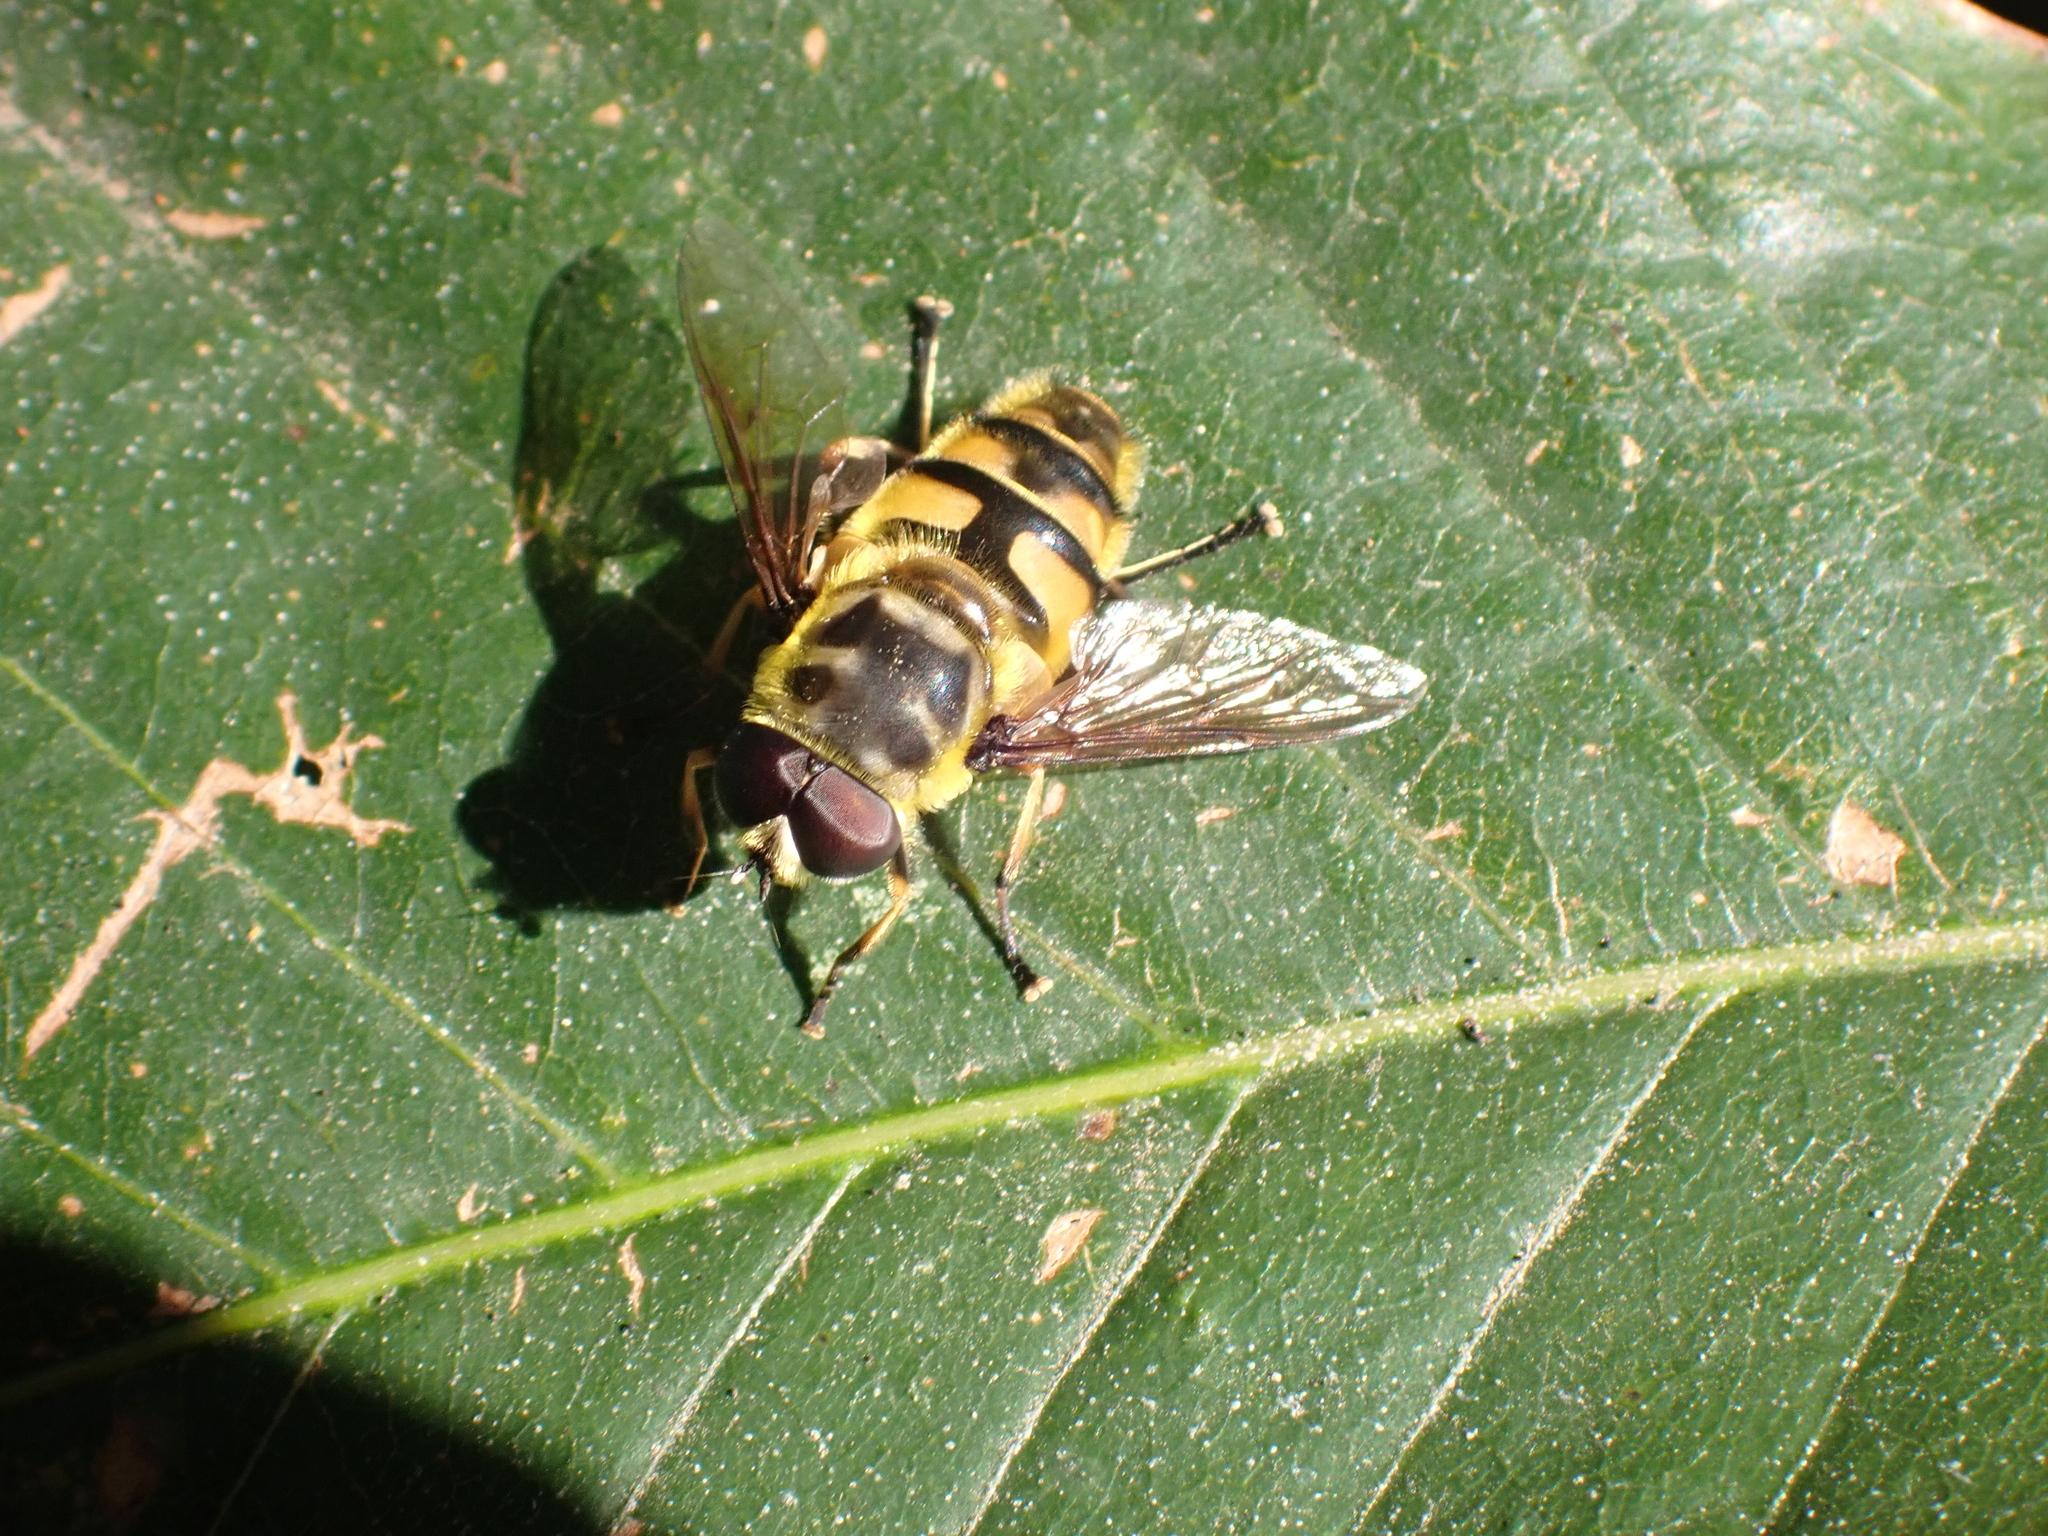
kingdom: Animalia
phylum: Arthropoda
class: Insecta
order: Diptera
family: Syrphidae
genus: Myathropa
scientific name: Myathropa florea
